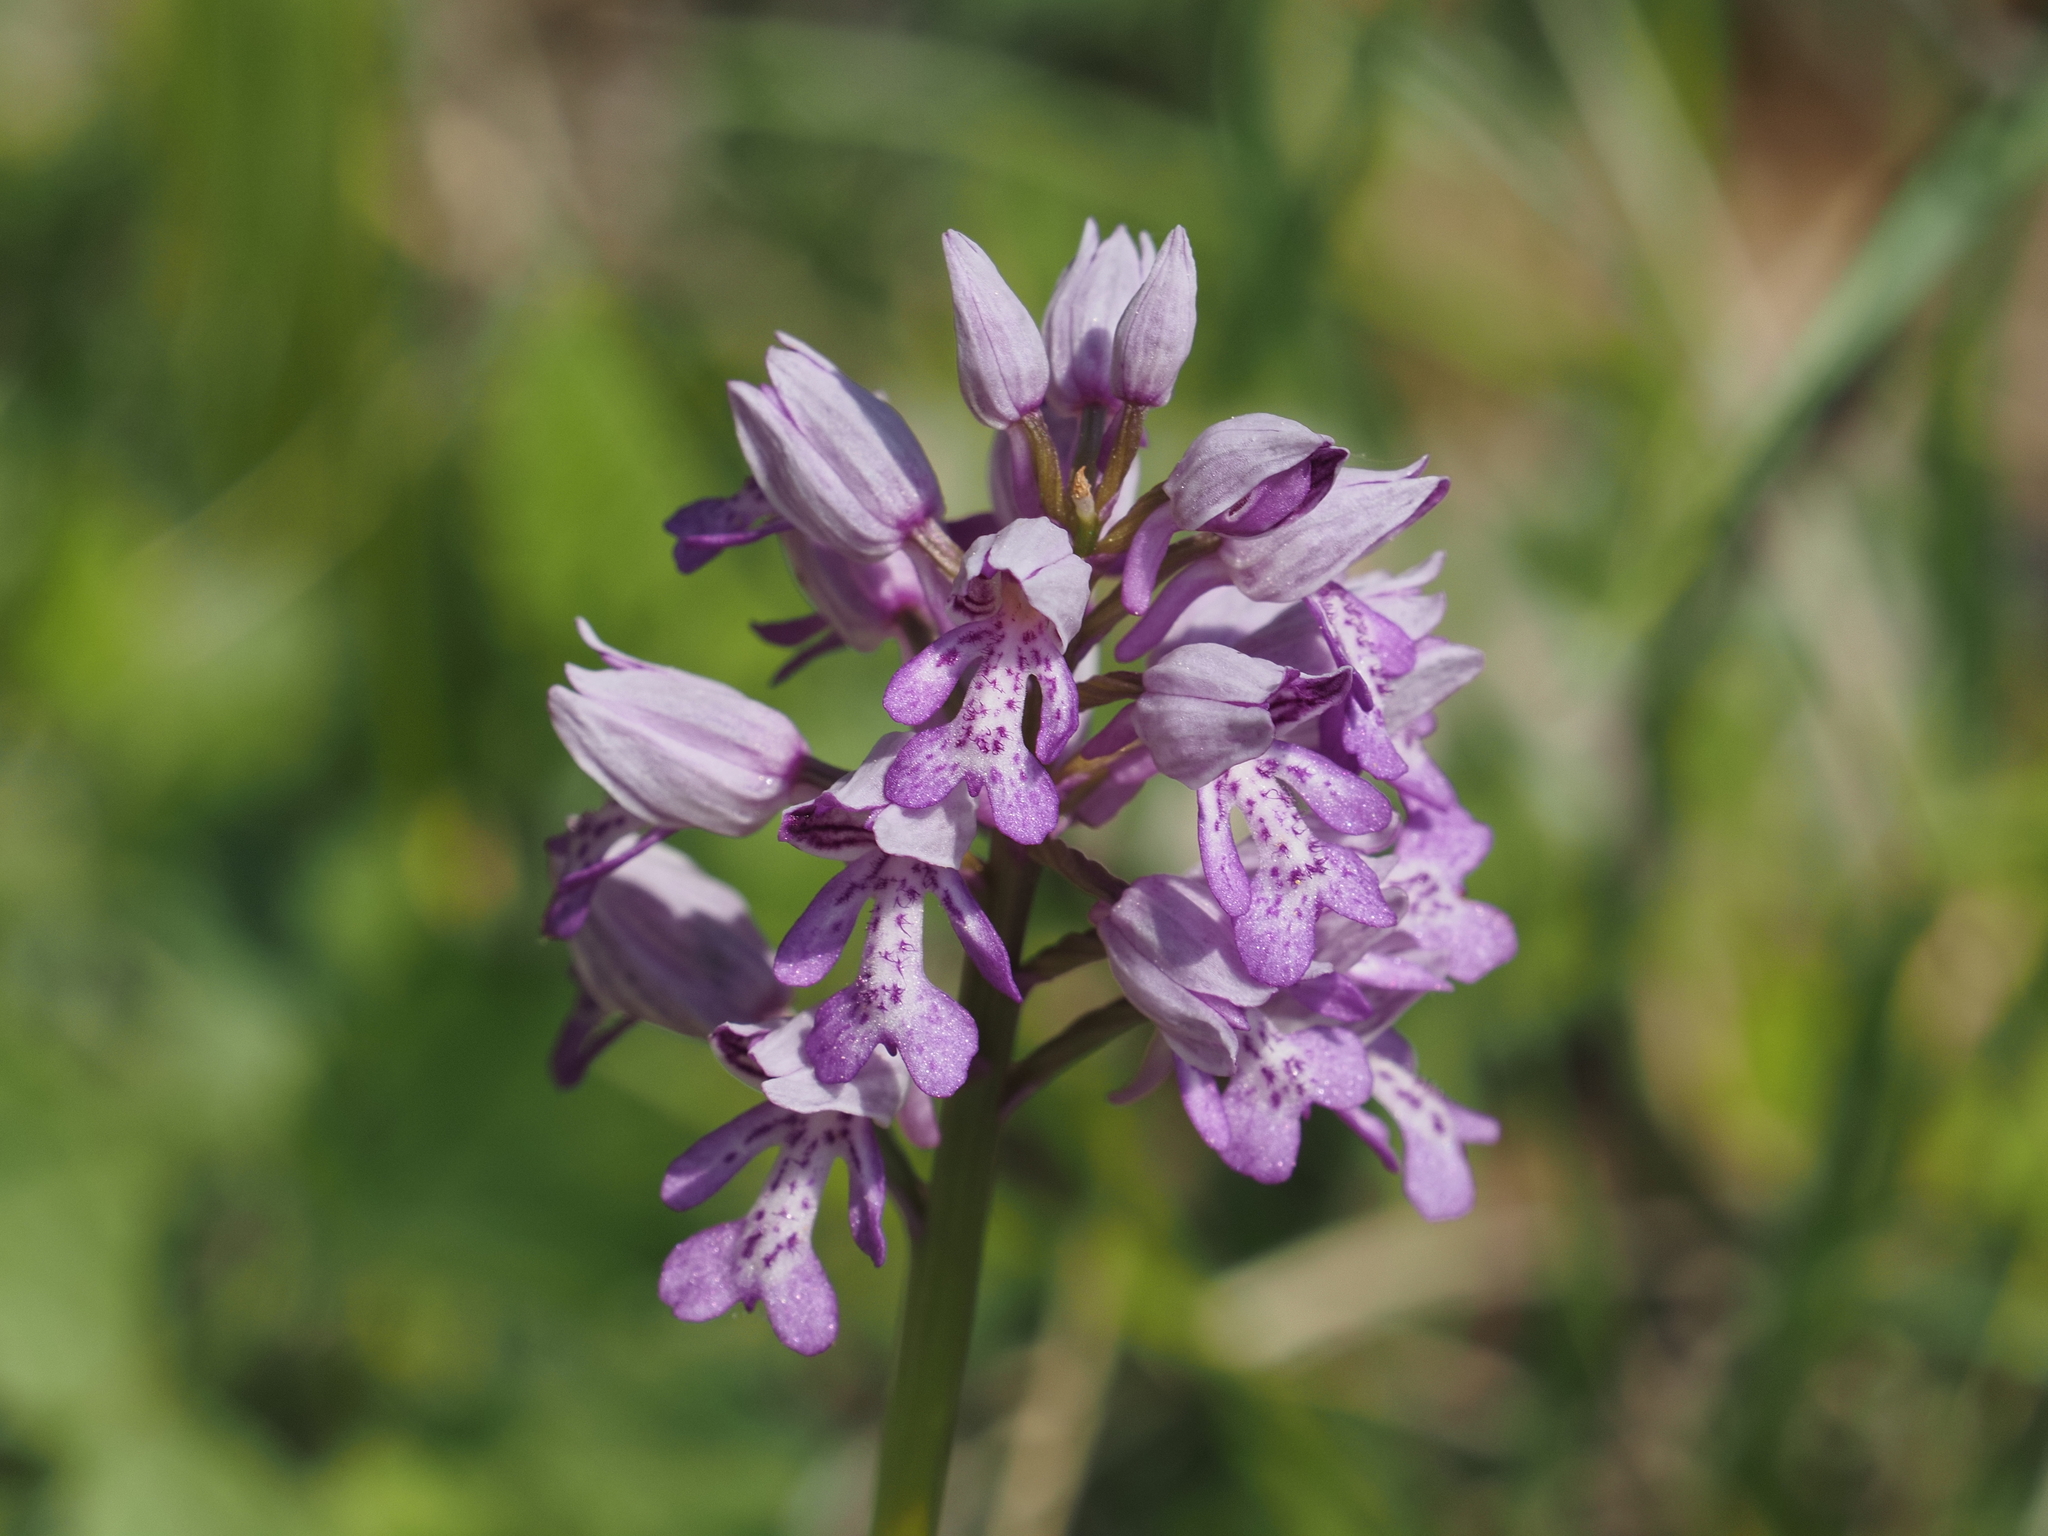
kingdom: Plantae
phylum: Tracheophyta
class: Liliopsida
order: Asparagales
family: Orchidaceae
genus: Orchis
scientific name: Orchis militaris
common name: Military orchid
